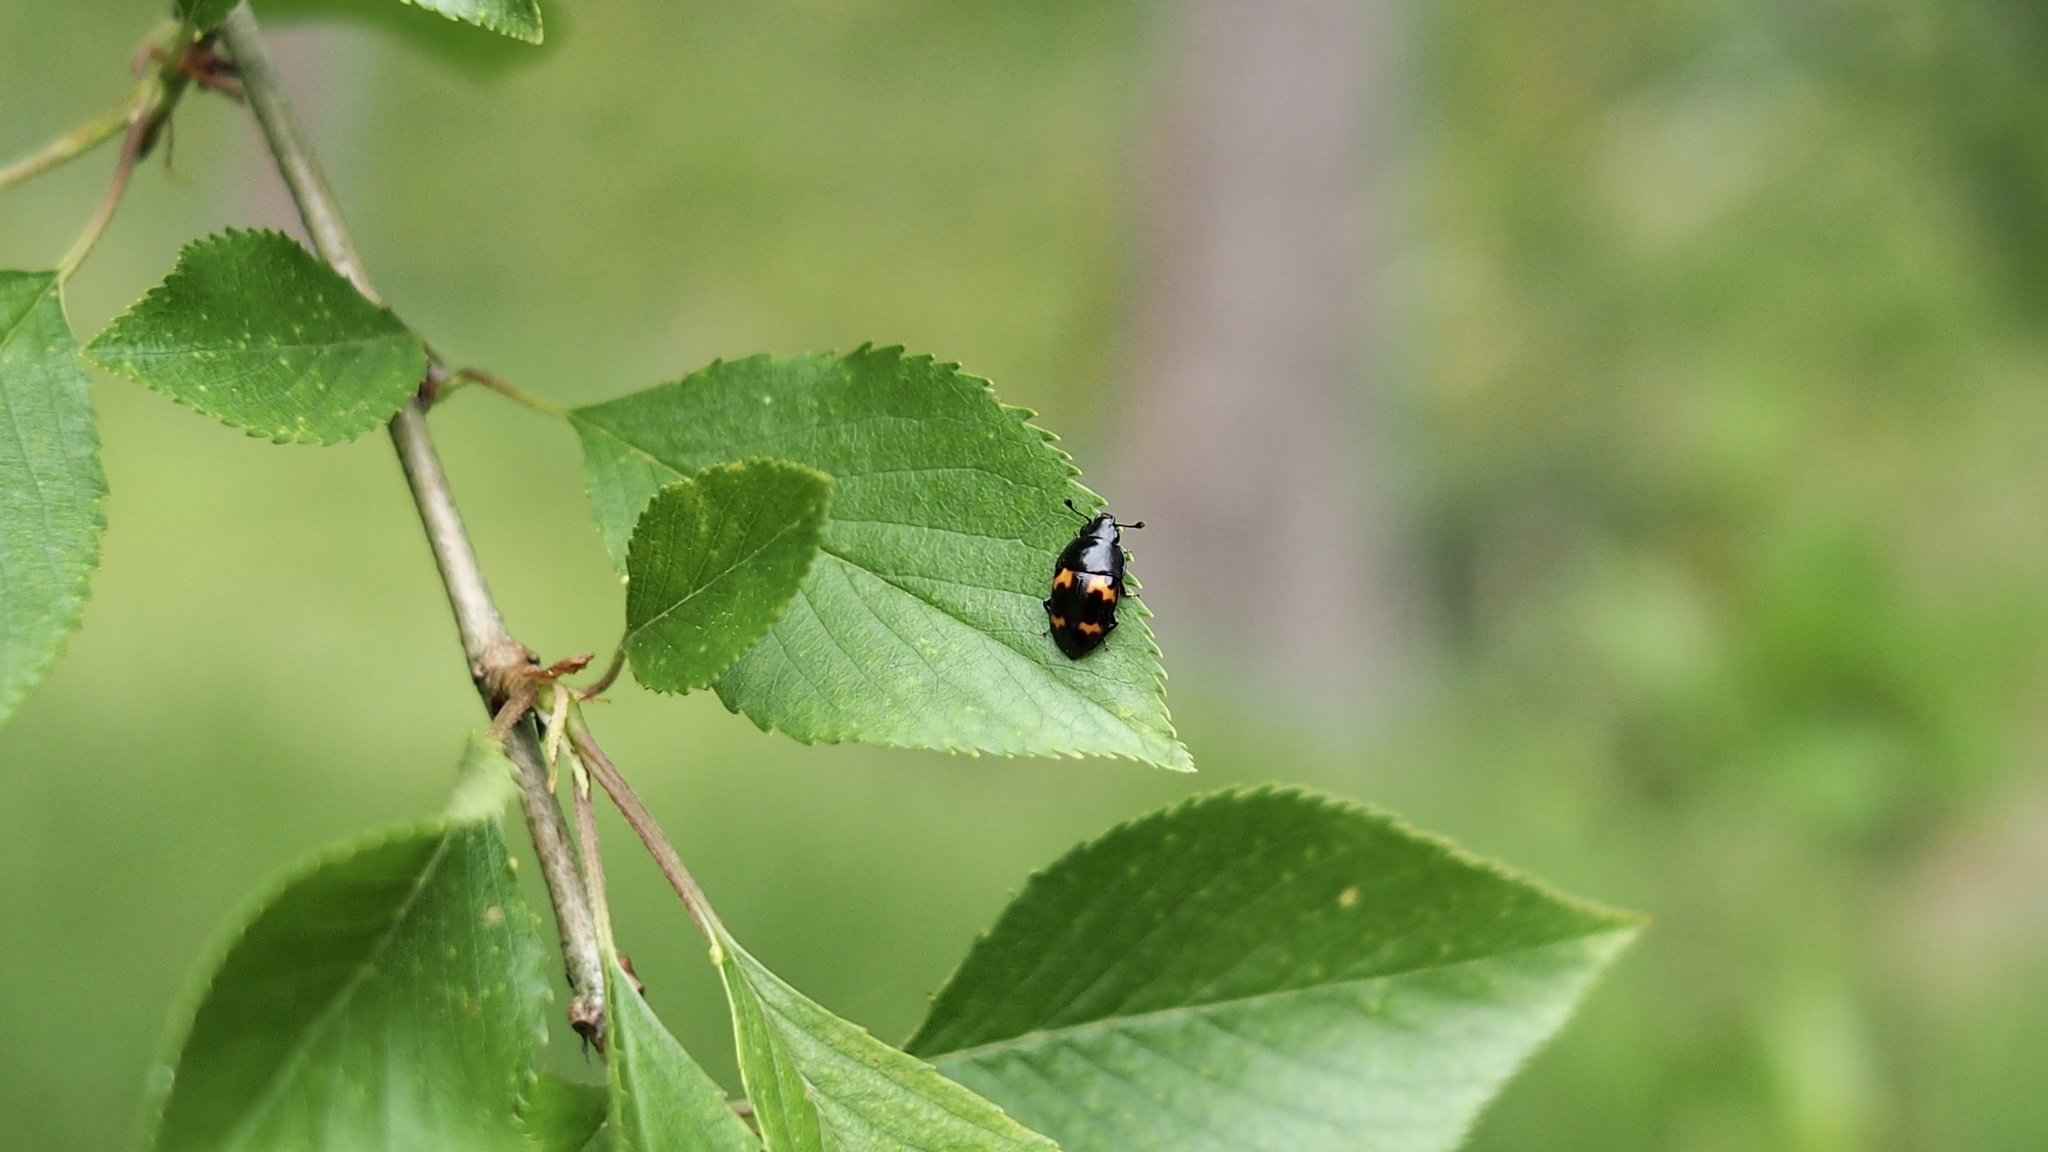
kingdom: Animalia
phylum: Arthropoda
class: Insecta
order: Coleoptera
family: Nitidulidae
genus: Glischrochilus
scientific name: Glischrochilus ipsoides
